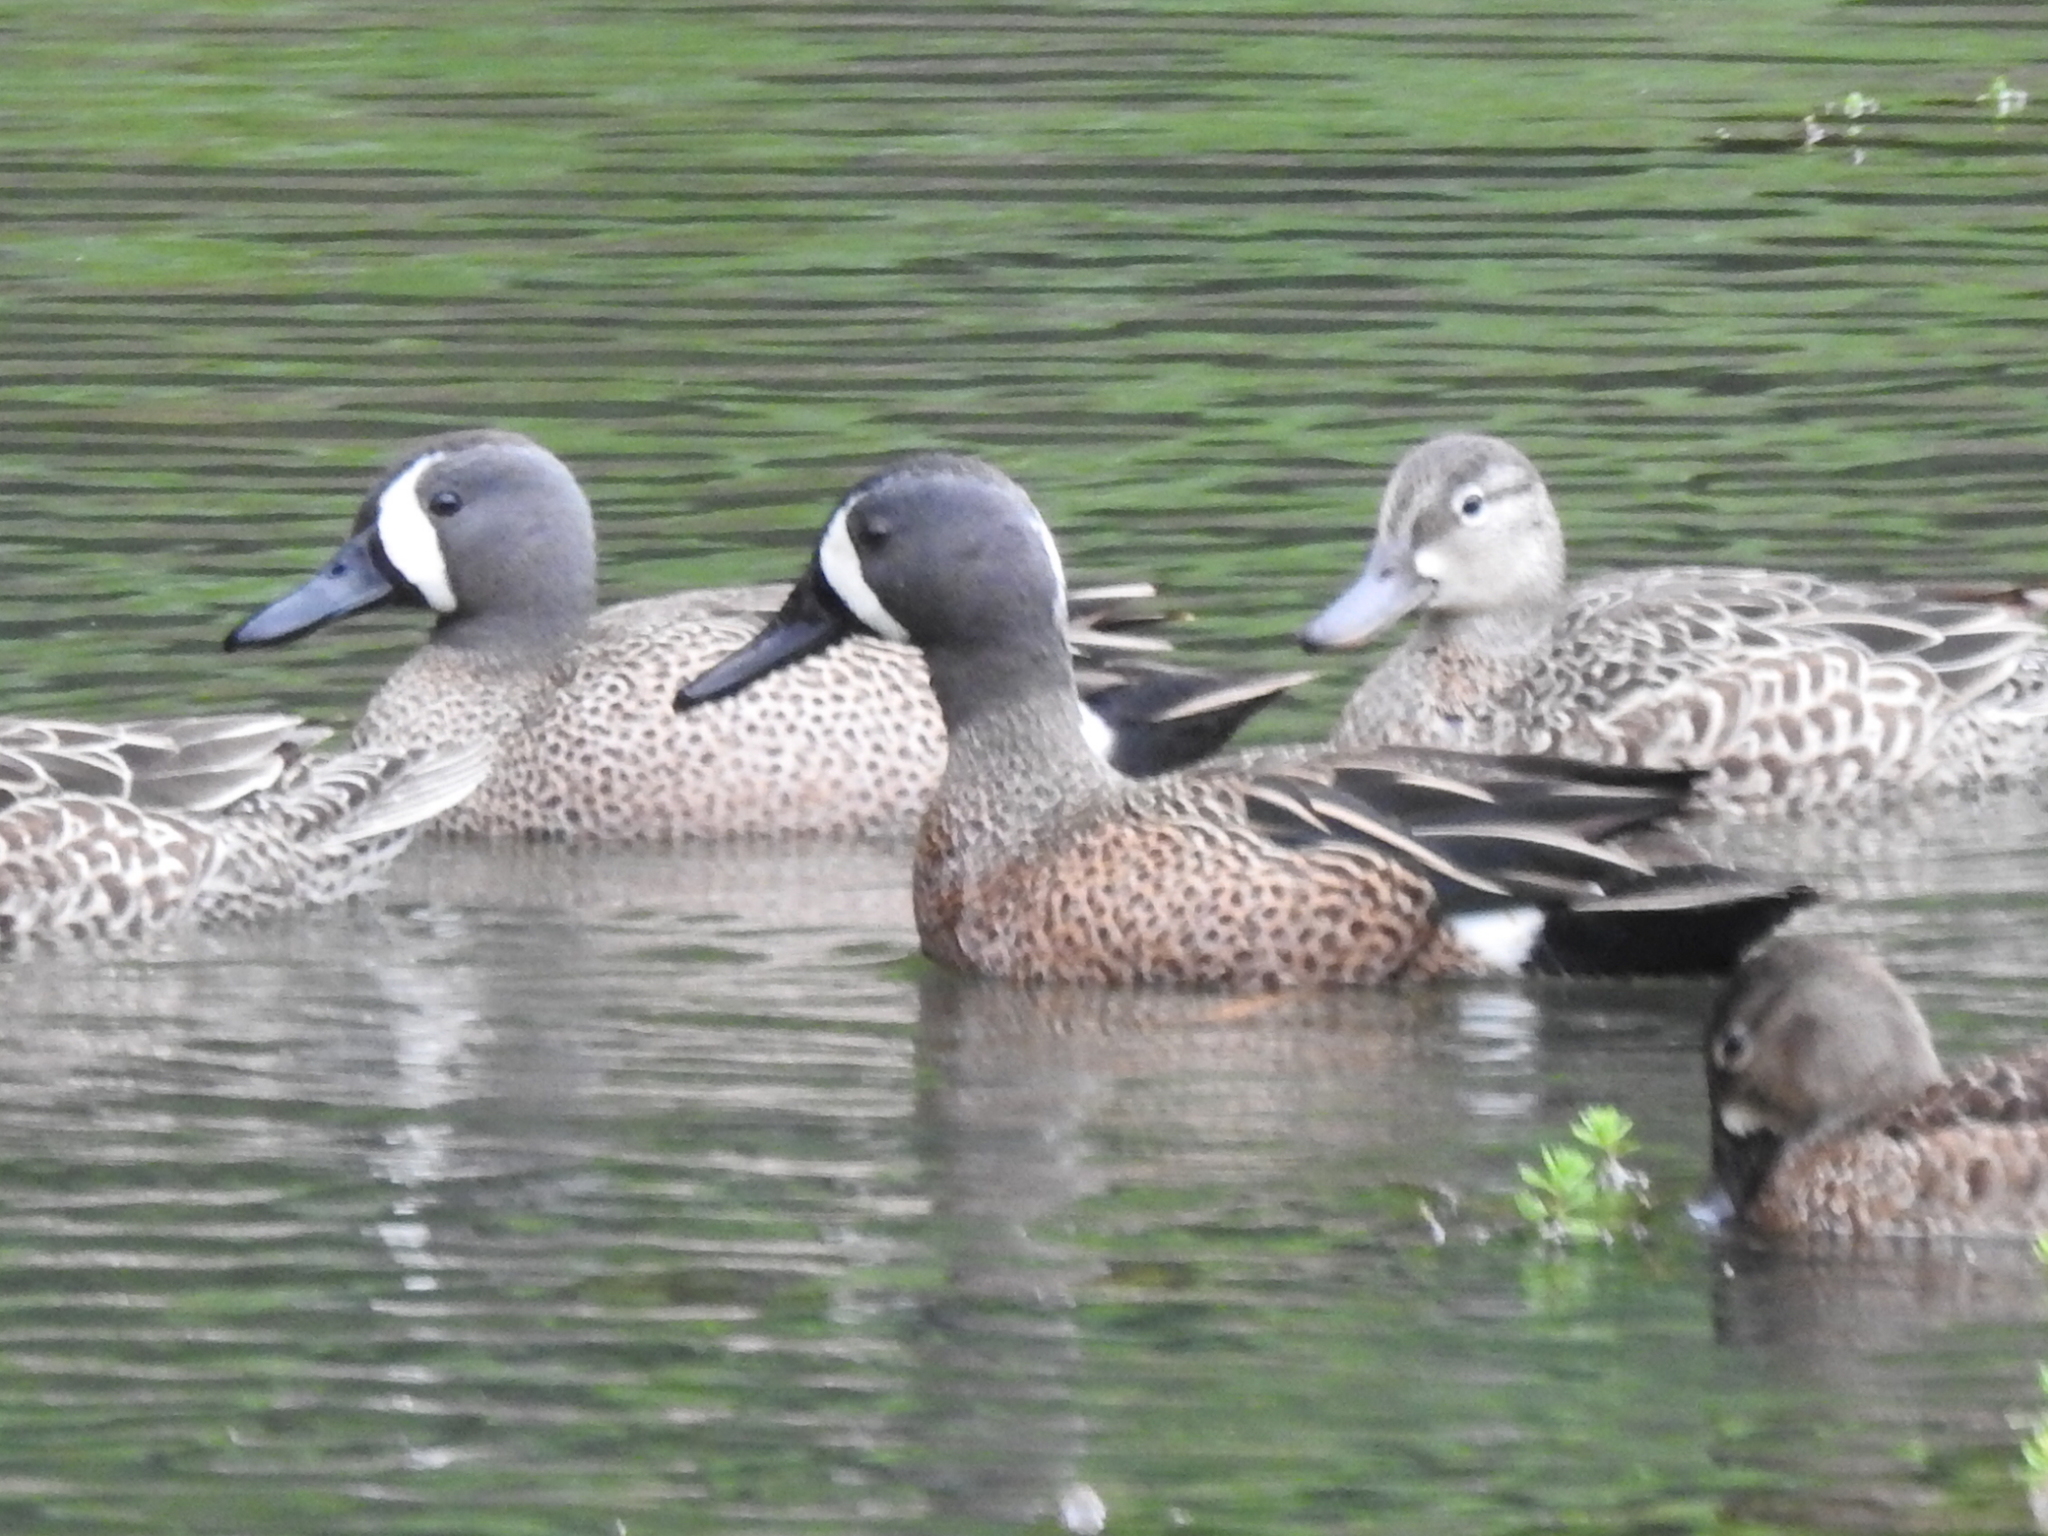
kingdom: Animalia
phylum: Chordata
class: Aves
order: Anseriformes
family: Anatidae
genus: Spatula
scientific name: Spatula discors
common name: Blue-winged teal
